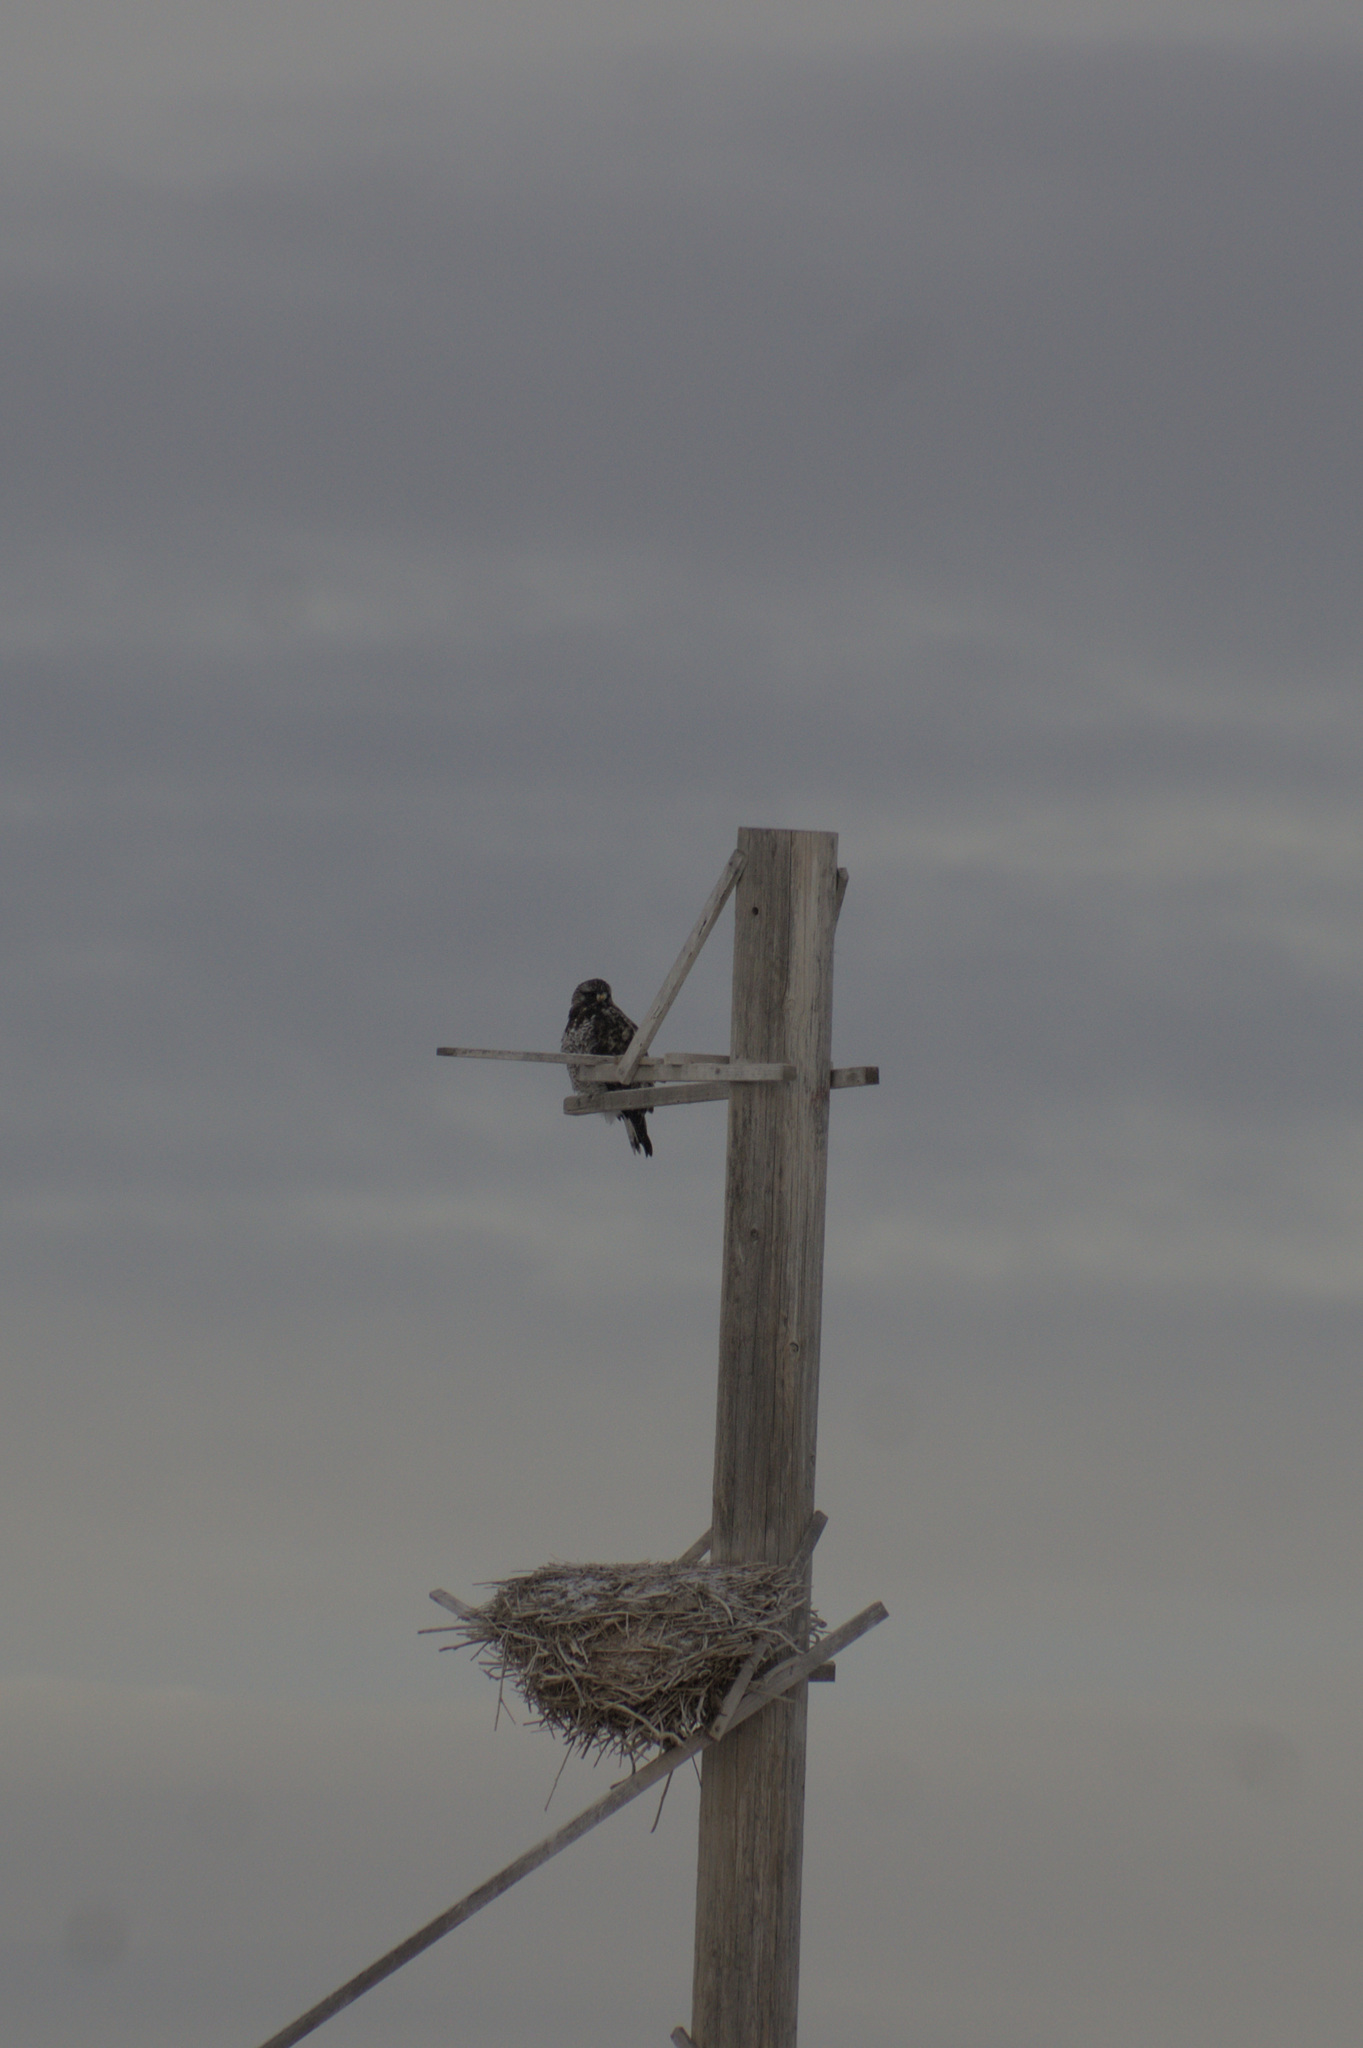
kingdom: Animalia
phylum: Chordata
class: Aves
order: Accipitriformes
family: Accipitridae
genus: Buteo
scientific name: Buteo lagopus
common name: Rough-legged buzzard
